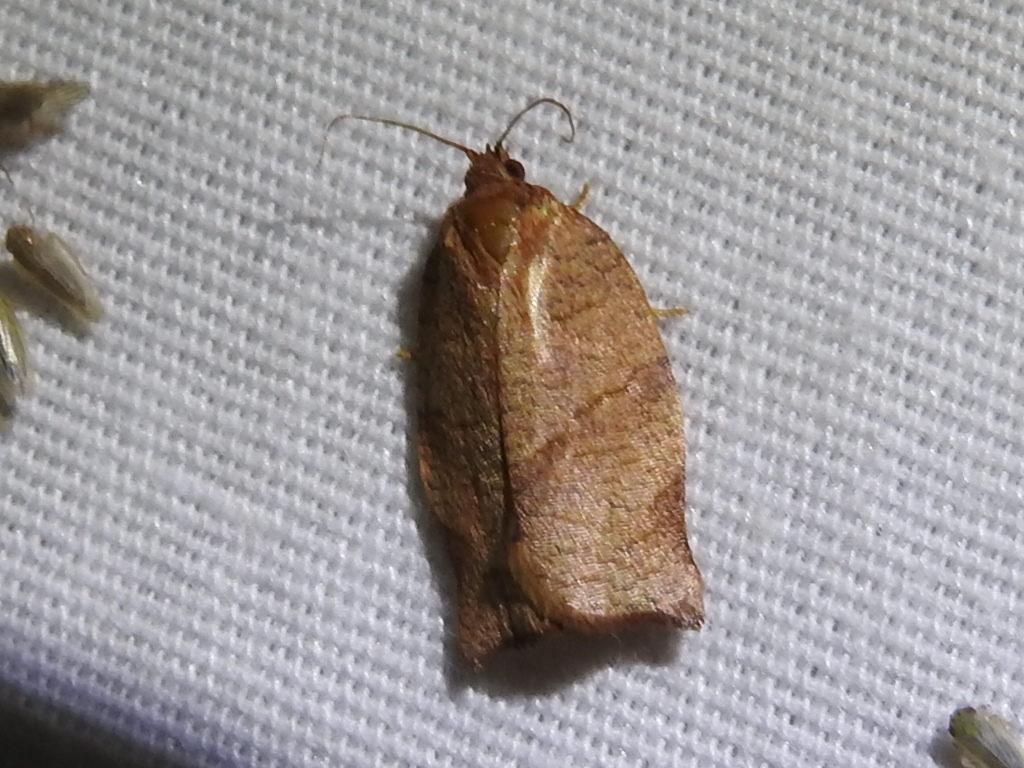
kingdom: Animalia
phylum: Arthropoda
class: Insecta
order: Lepidoptera
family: Tortricidae
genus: Choristoneura
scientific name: Choristoneura rosaceana
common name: Oblique-banded leafroller moth
